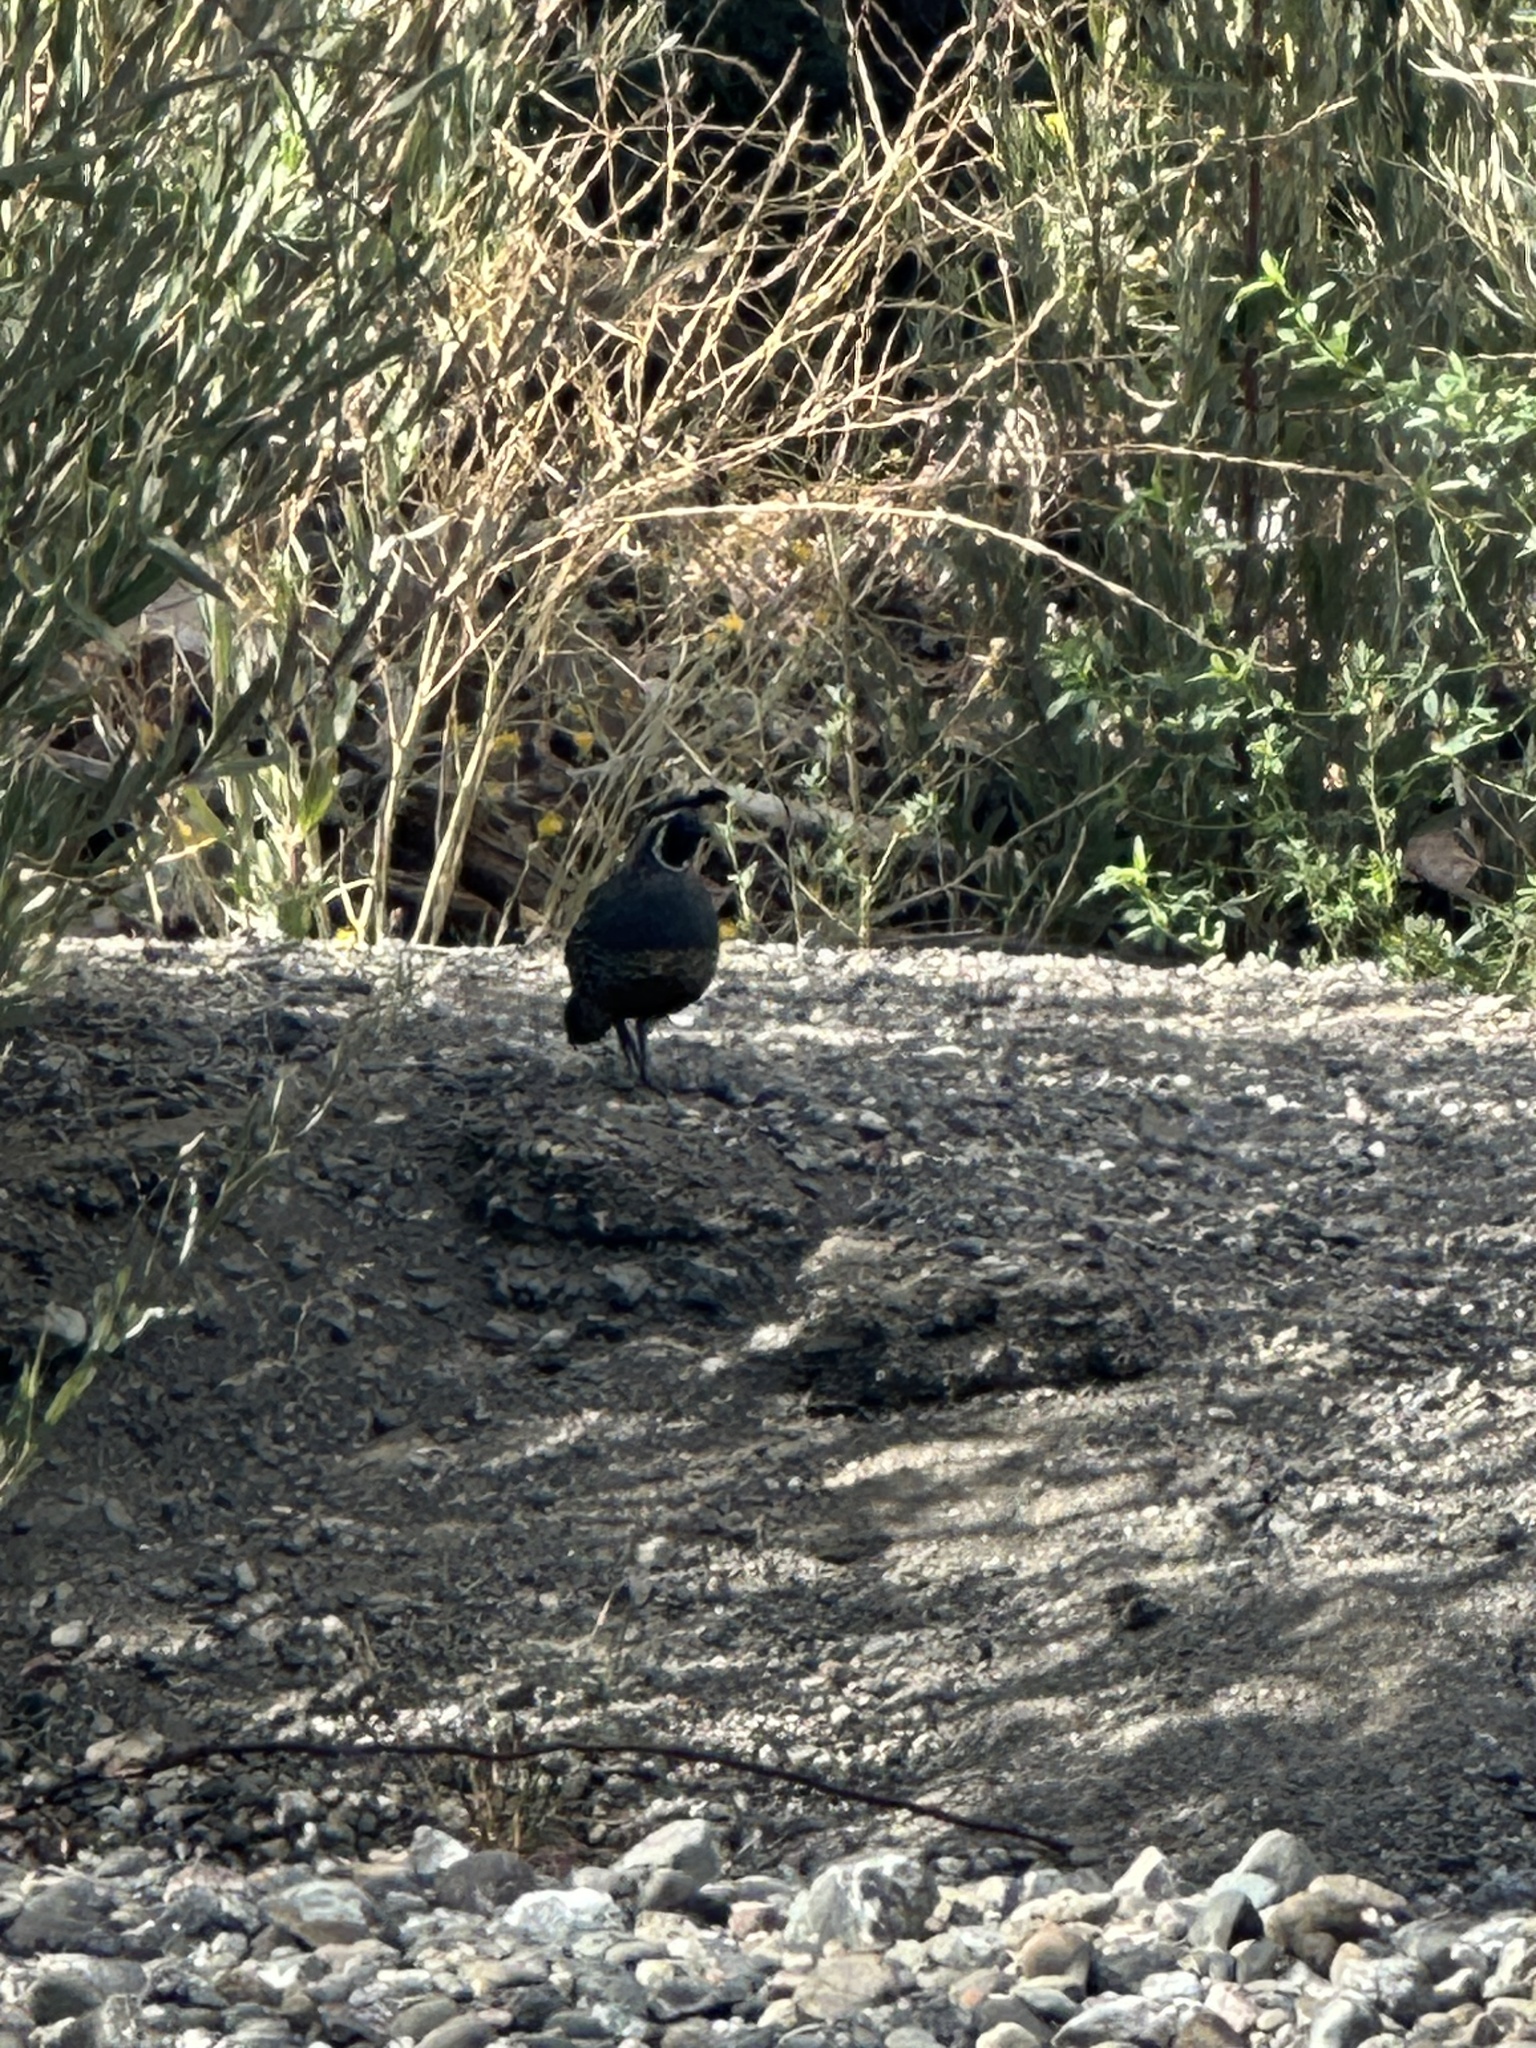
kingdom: Animalia
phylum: Chordata
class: Aves
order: Galliformes
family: Odontophoridae
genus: Callipepla
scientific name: Callipepla californica
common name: California quail
